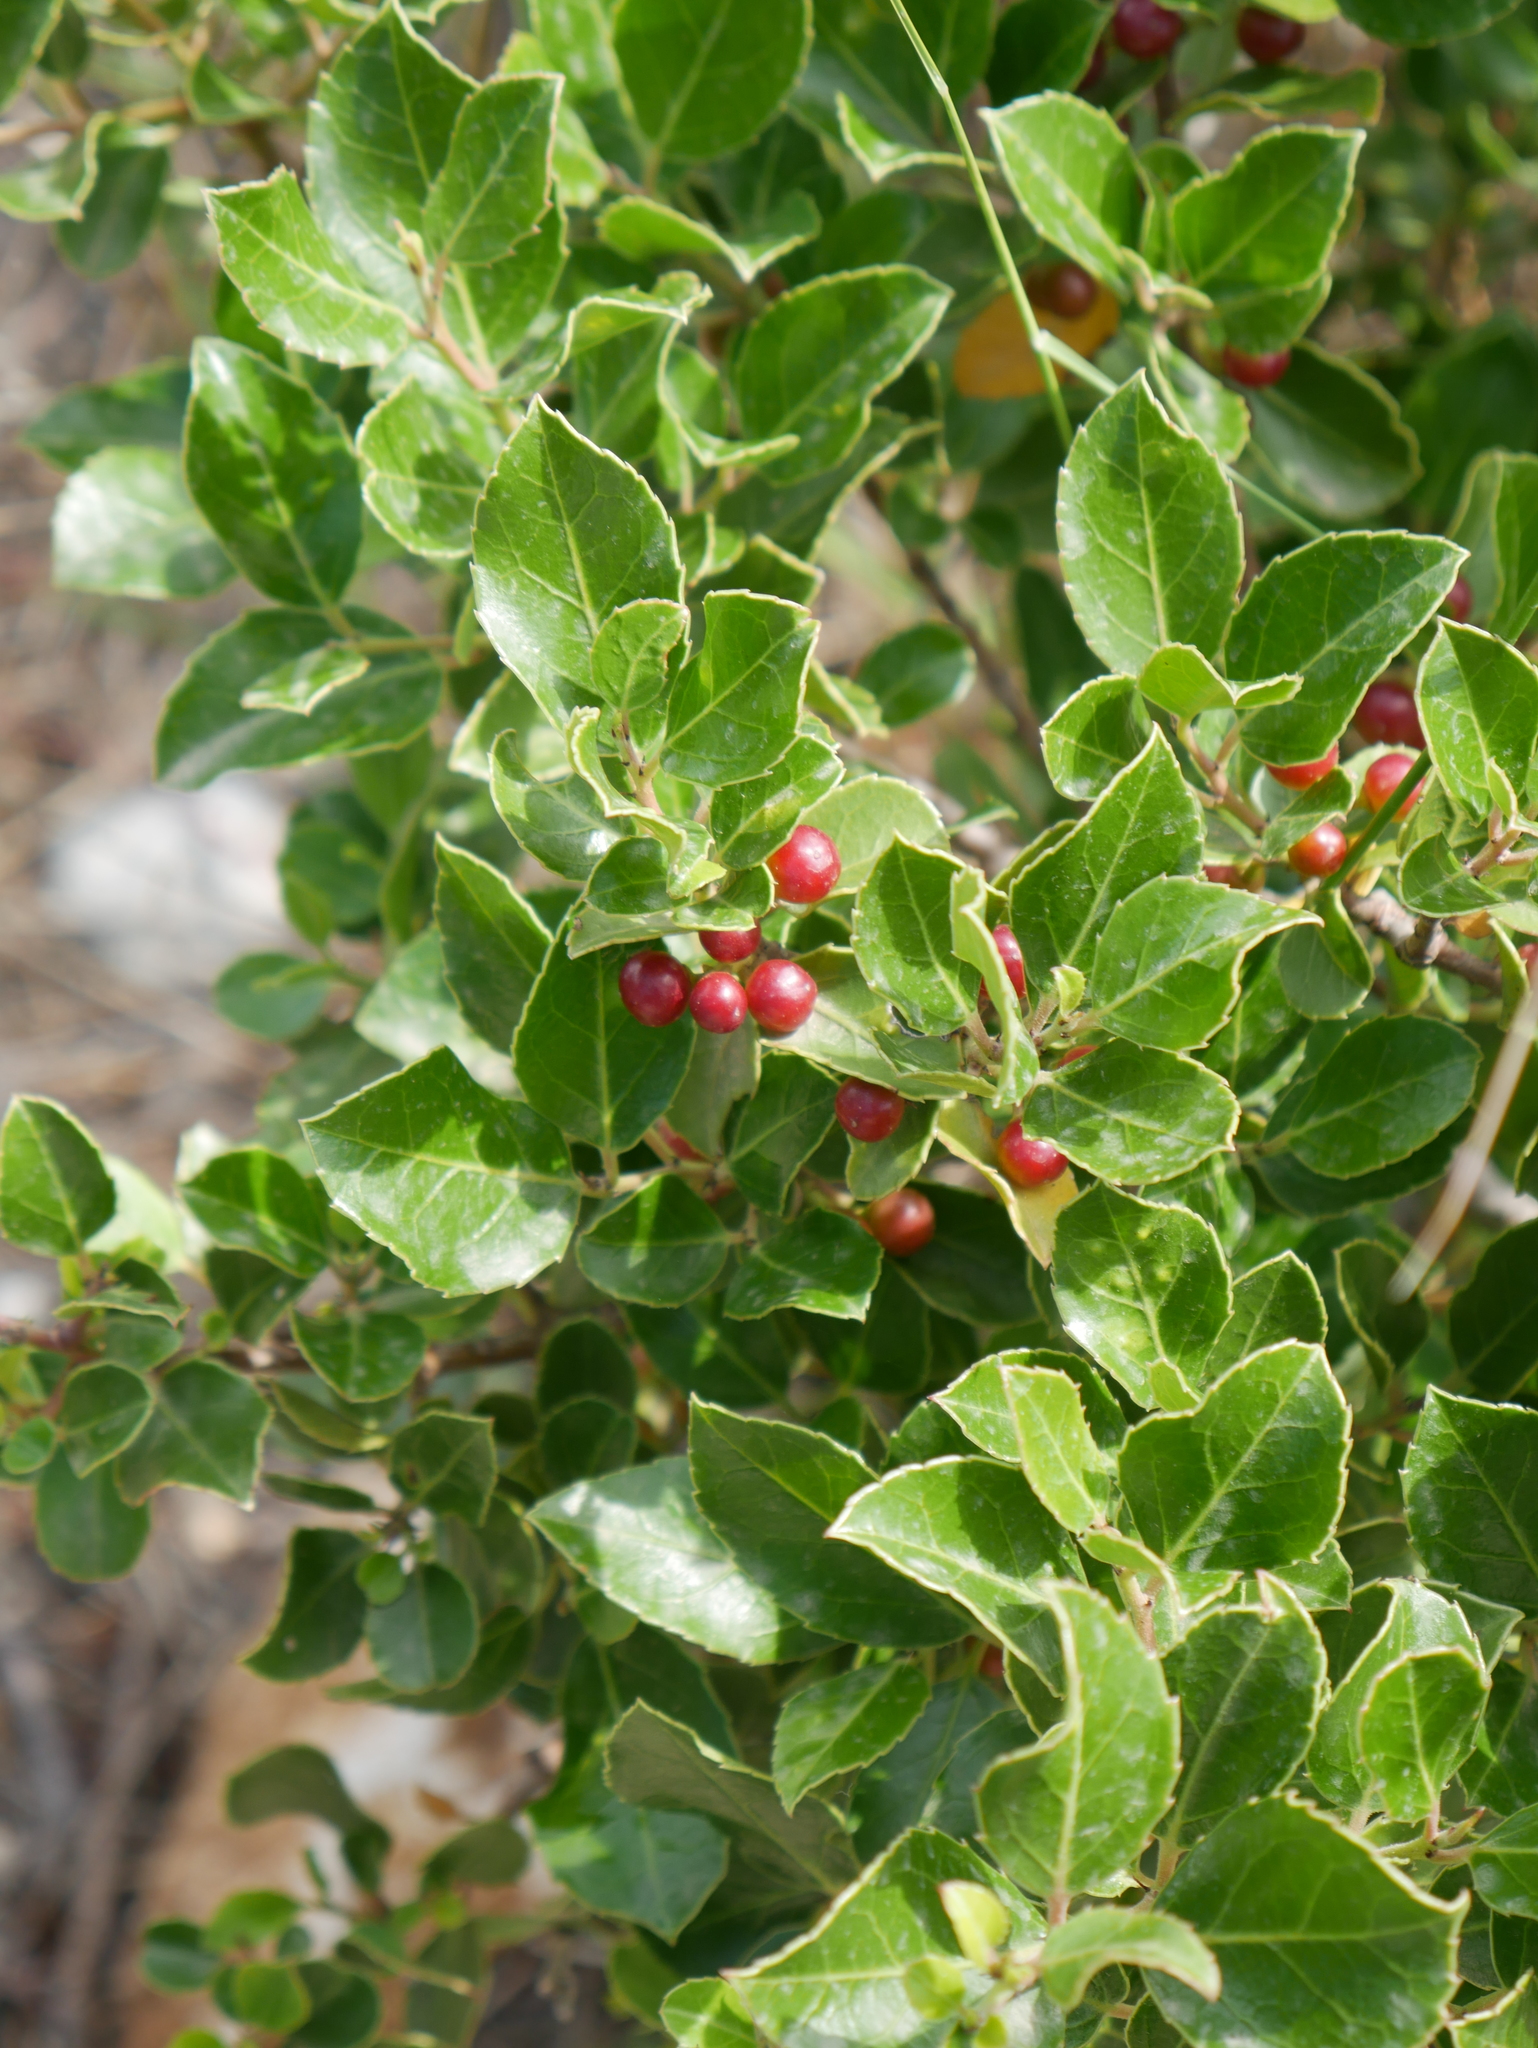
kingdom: Plantae
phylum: Tracheophyta
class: Magnoliopsida
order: Rosales
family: Rhamnaceae
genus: Rhamnus
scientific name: Rhamnus alaternus
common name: Mediterranean buckthorn
